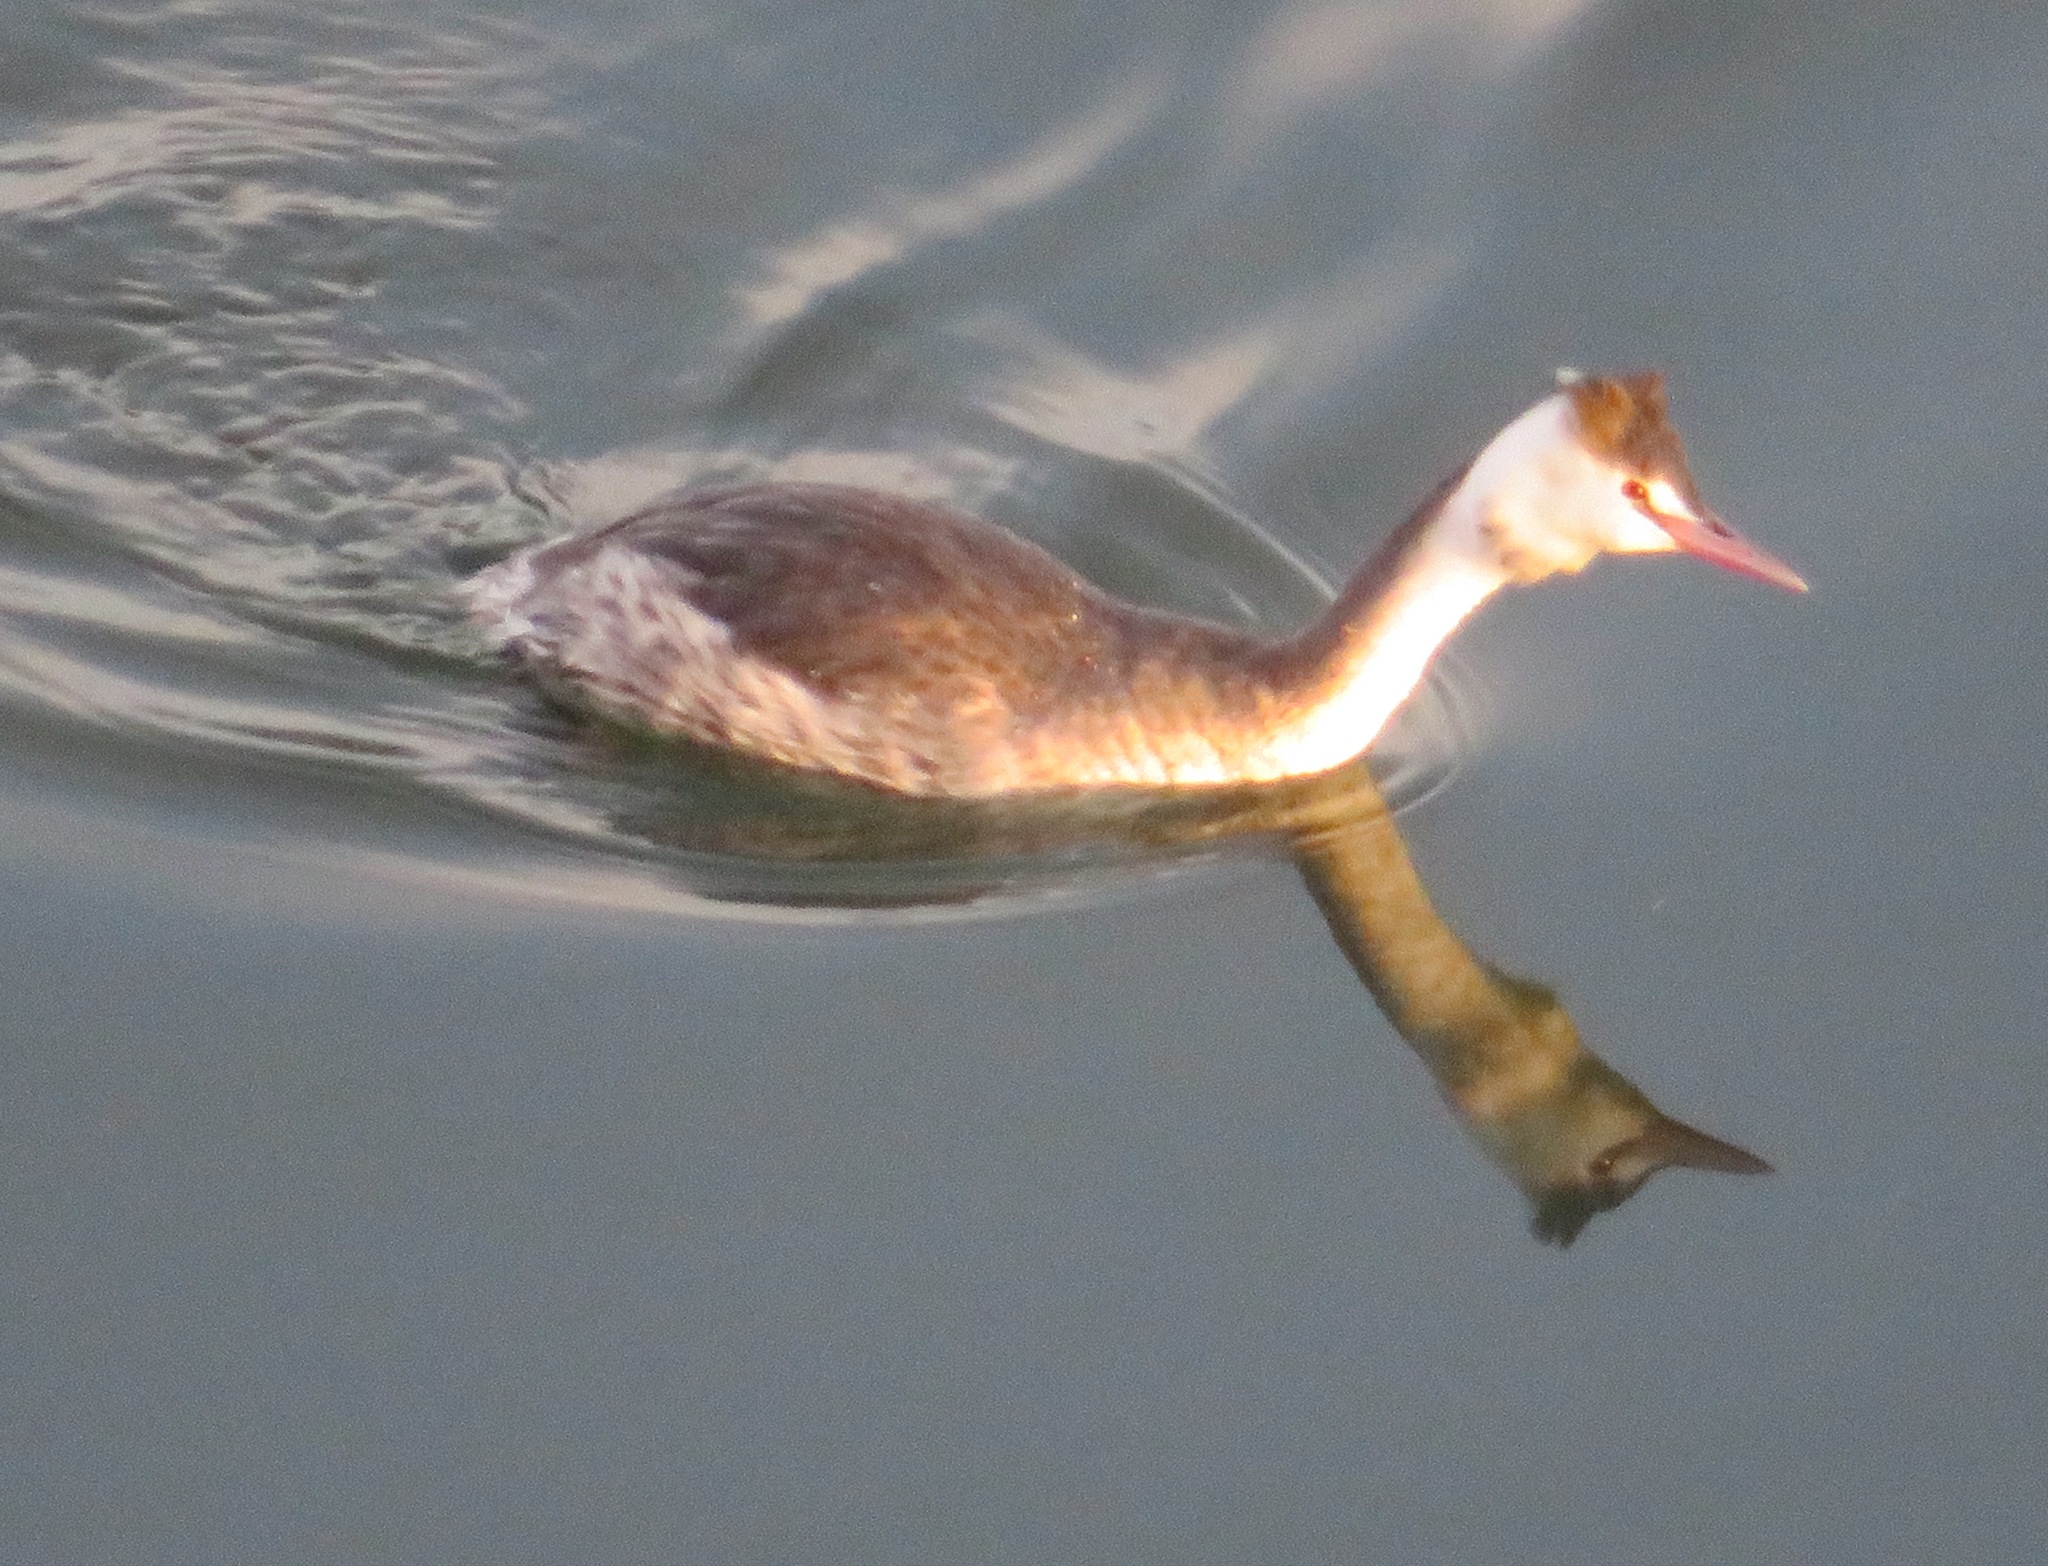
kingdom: Animalia
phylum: Chordata
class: Aves
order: Podicipediformes
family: Podicipedidae
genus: Podiceps
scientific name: Podiceps cristatus
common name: Great crested grebe
